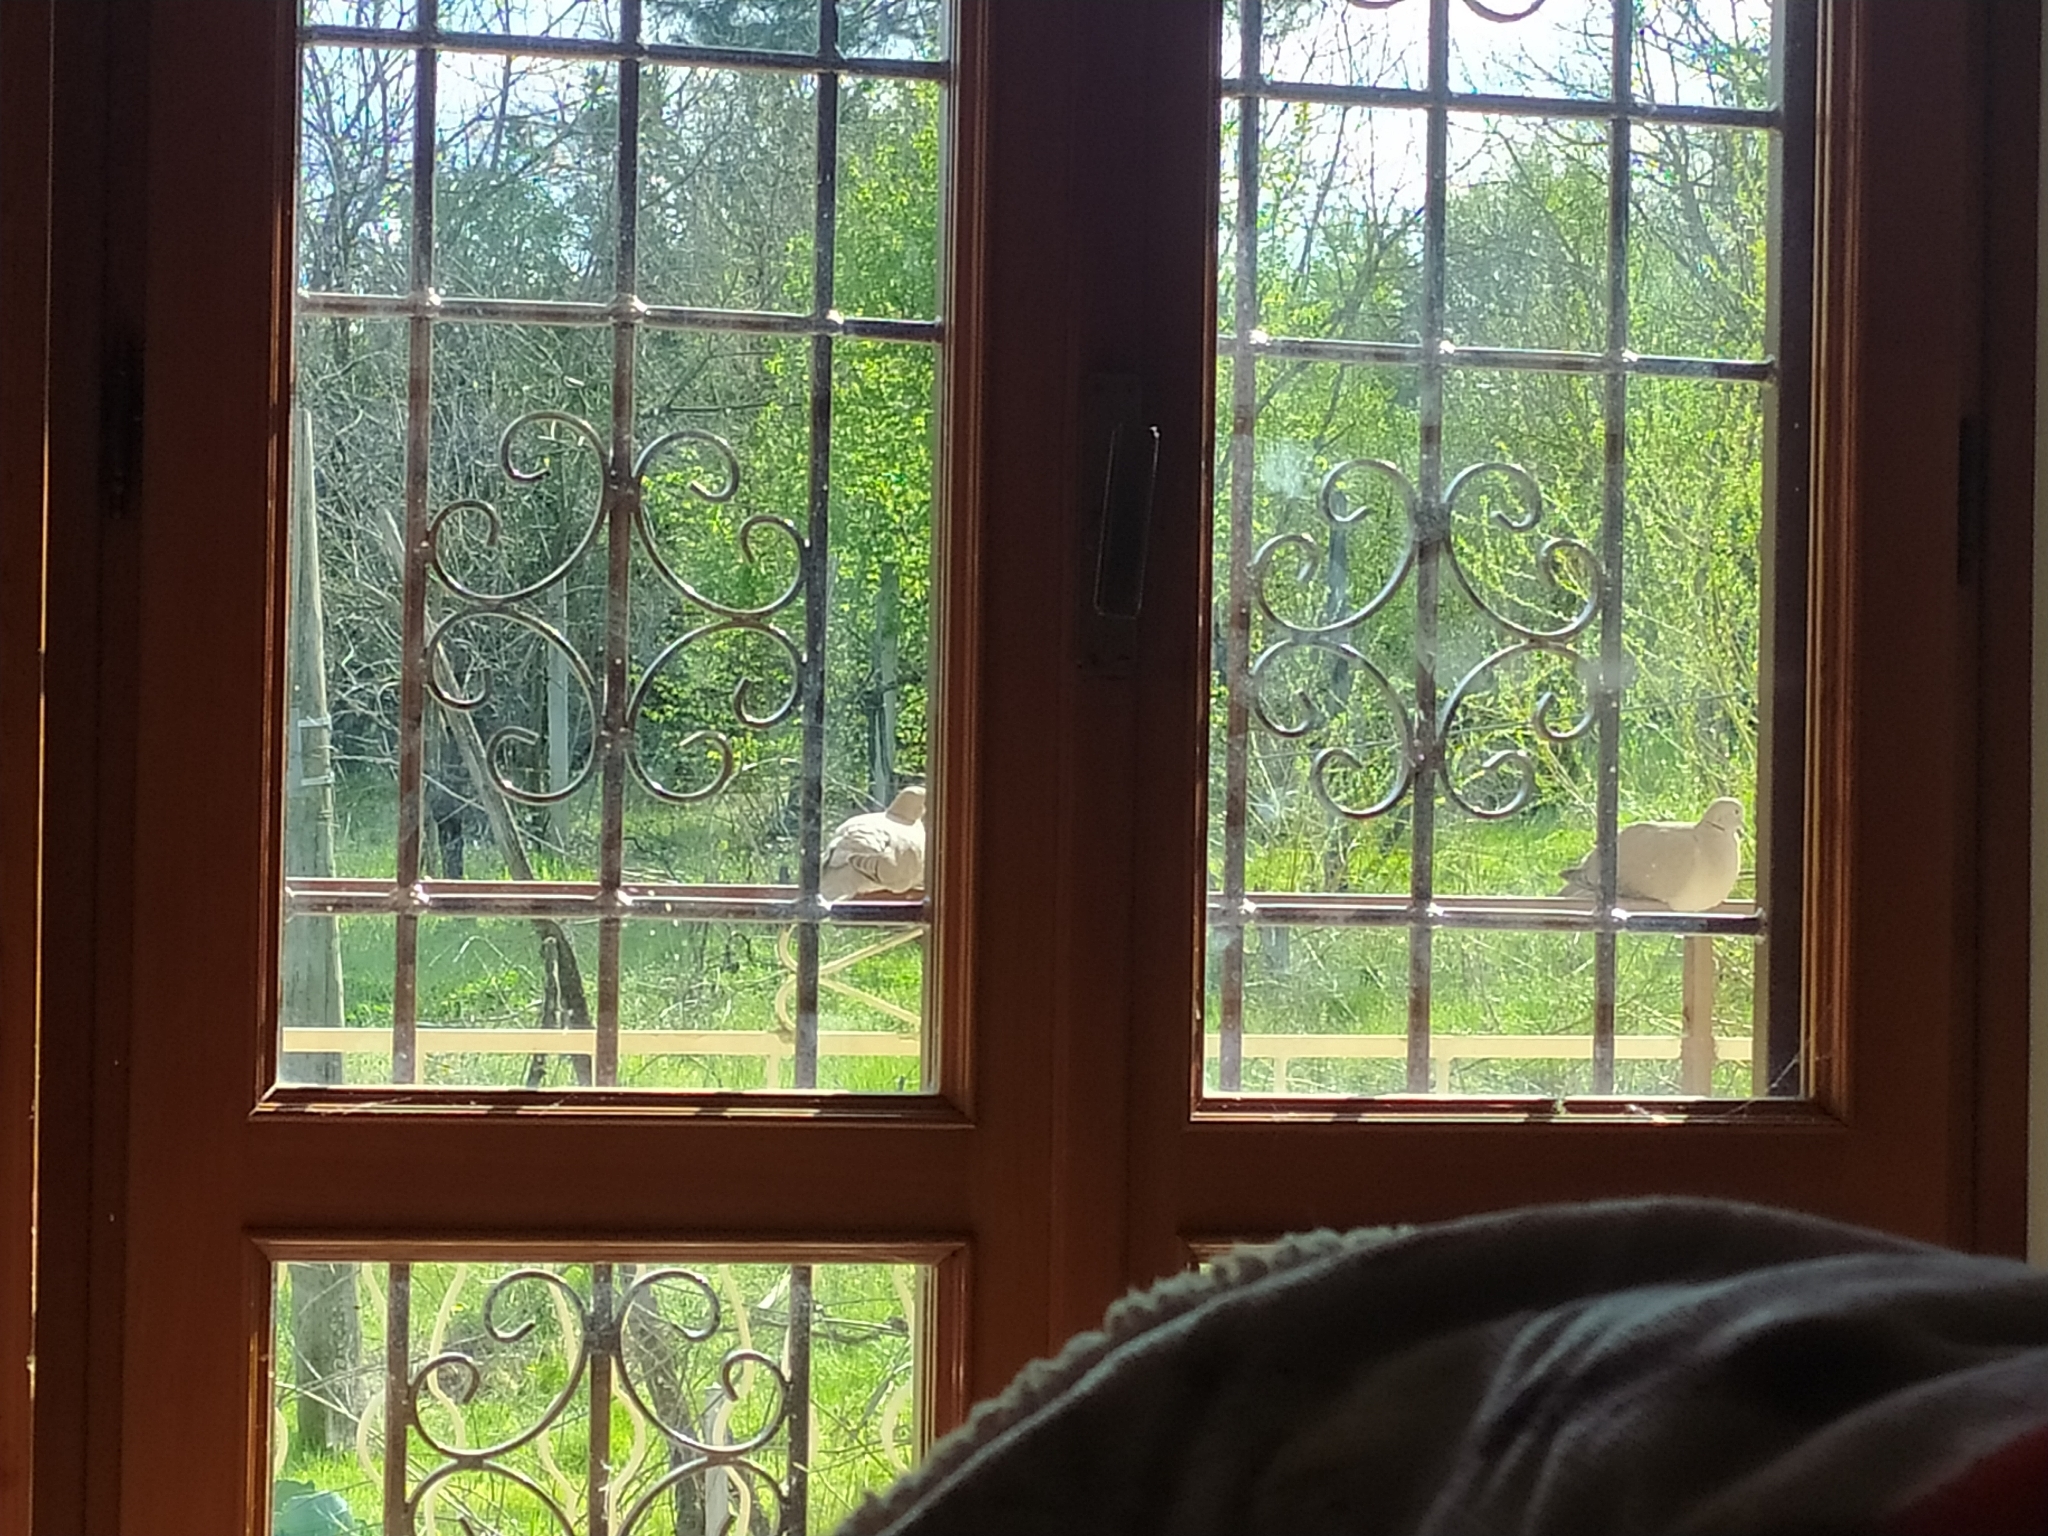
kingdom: Animalia
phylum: Chordata
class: Aves
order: Columbiformes
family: Columbidae
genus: Streptopelia
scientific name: Streptopelia decaocto
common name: Eurasian collared dove
